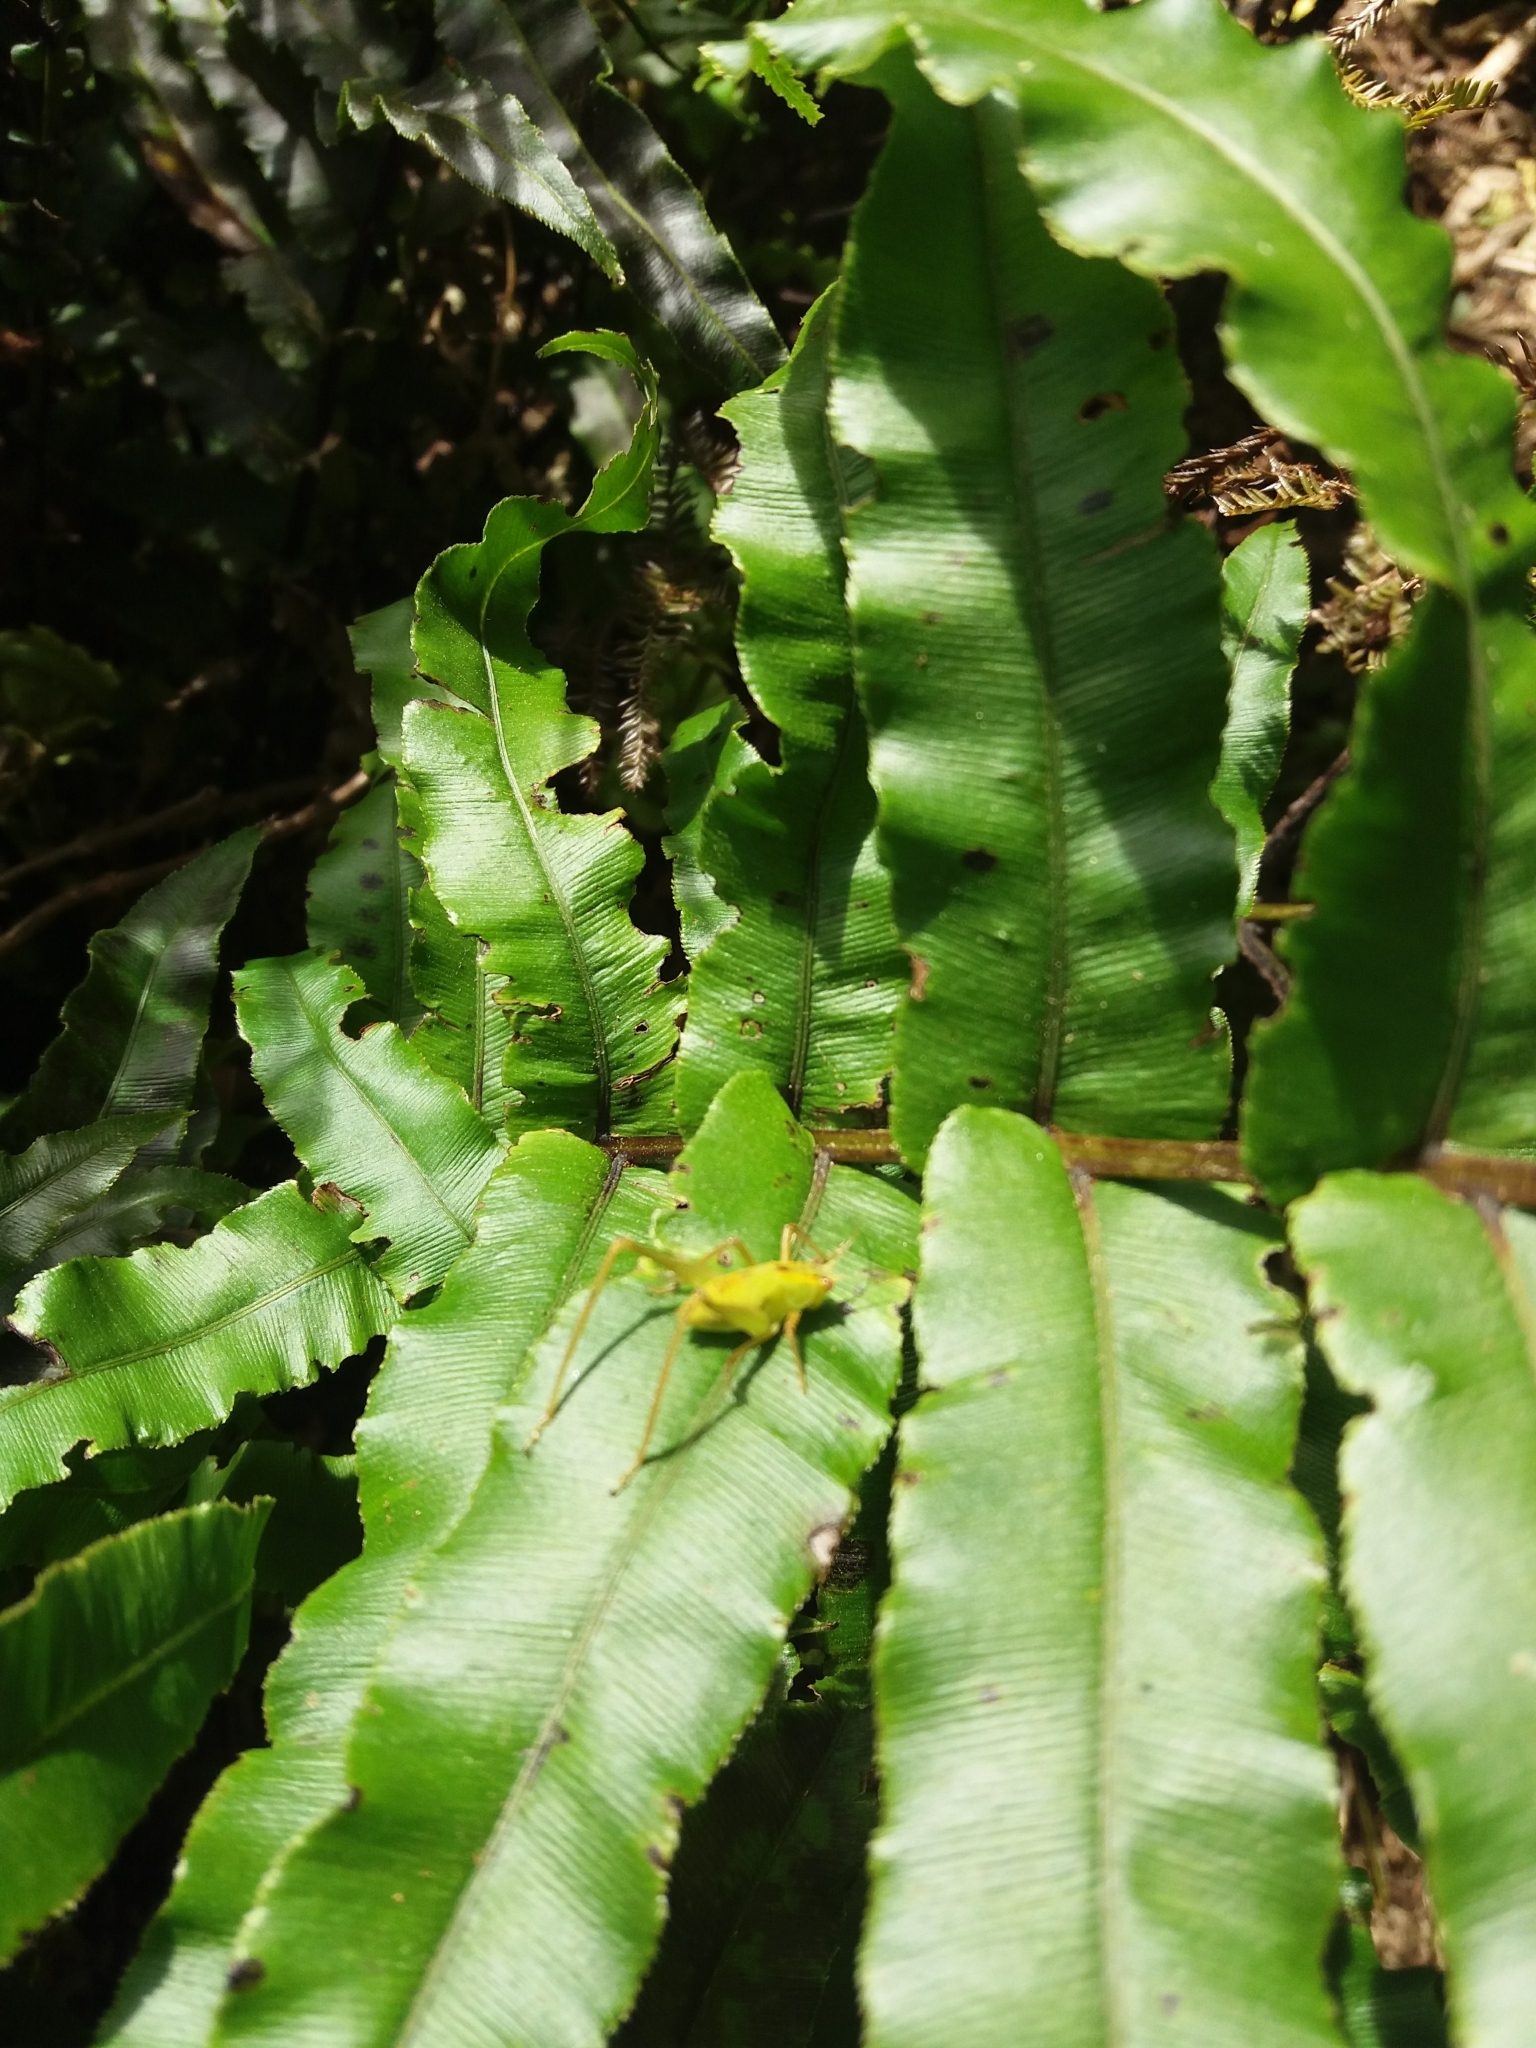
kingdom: Animalia
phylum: Arthropoda
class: Insecta
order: Orthoptera
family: Tettigoniidae
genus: Caedicia
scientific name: Caedicia simplex
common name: Common garden katydid
